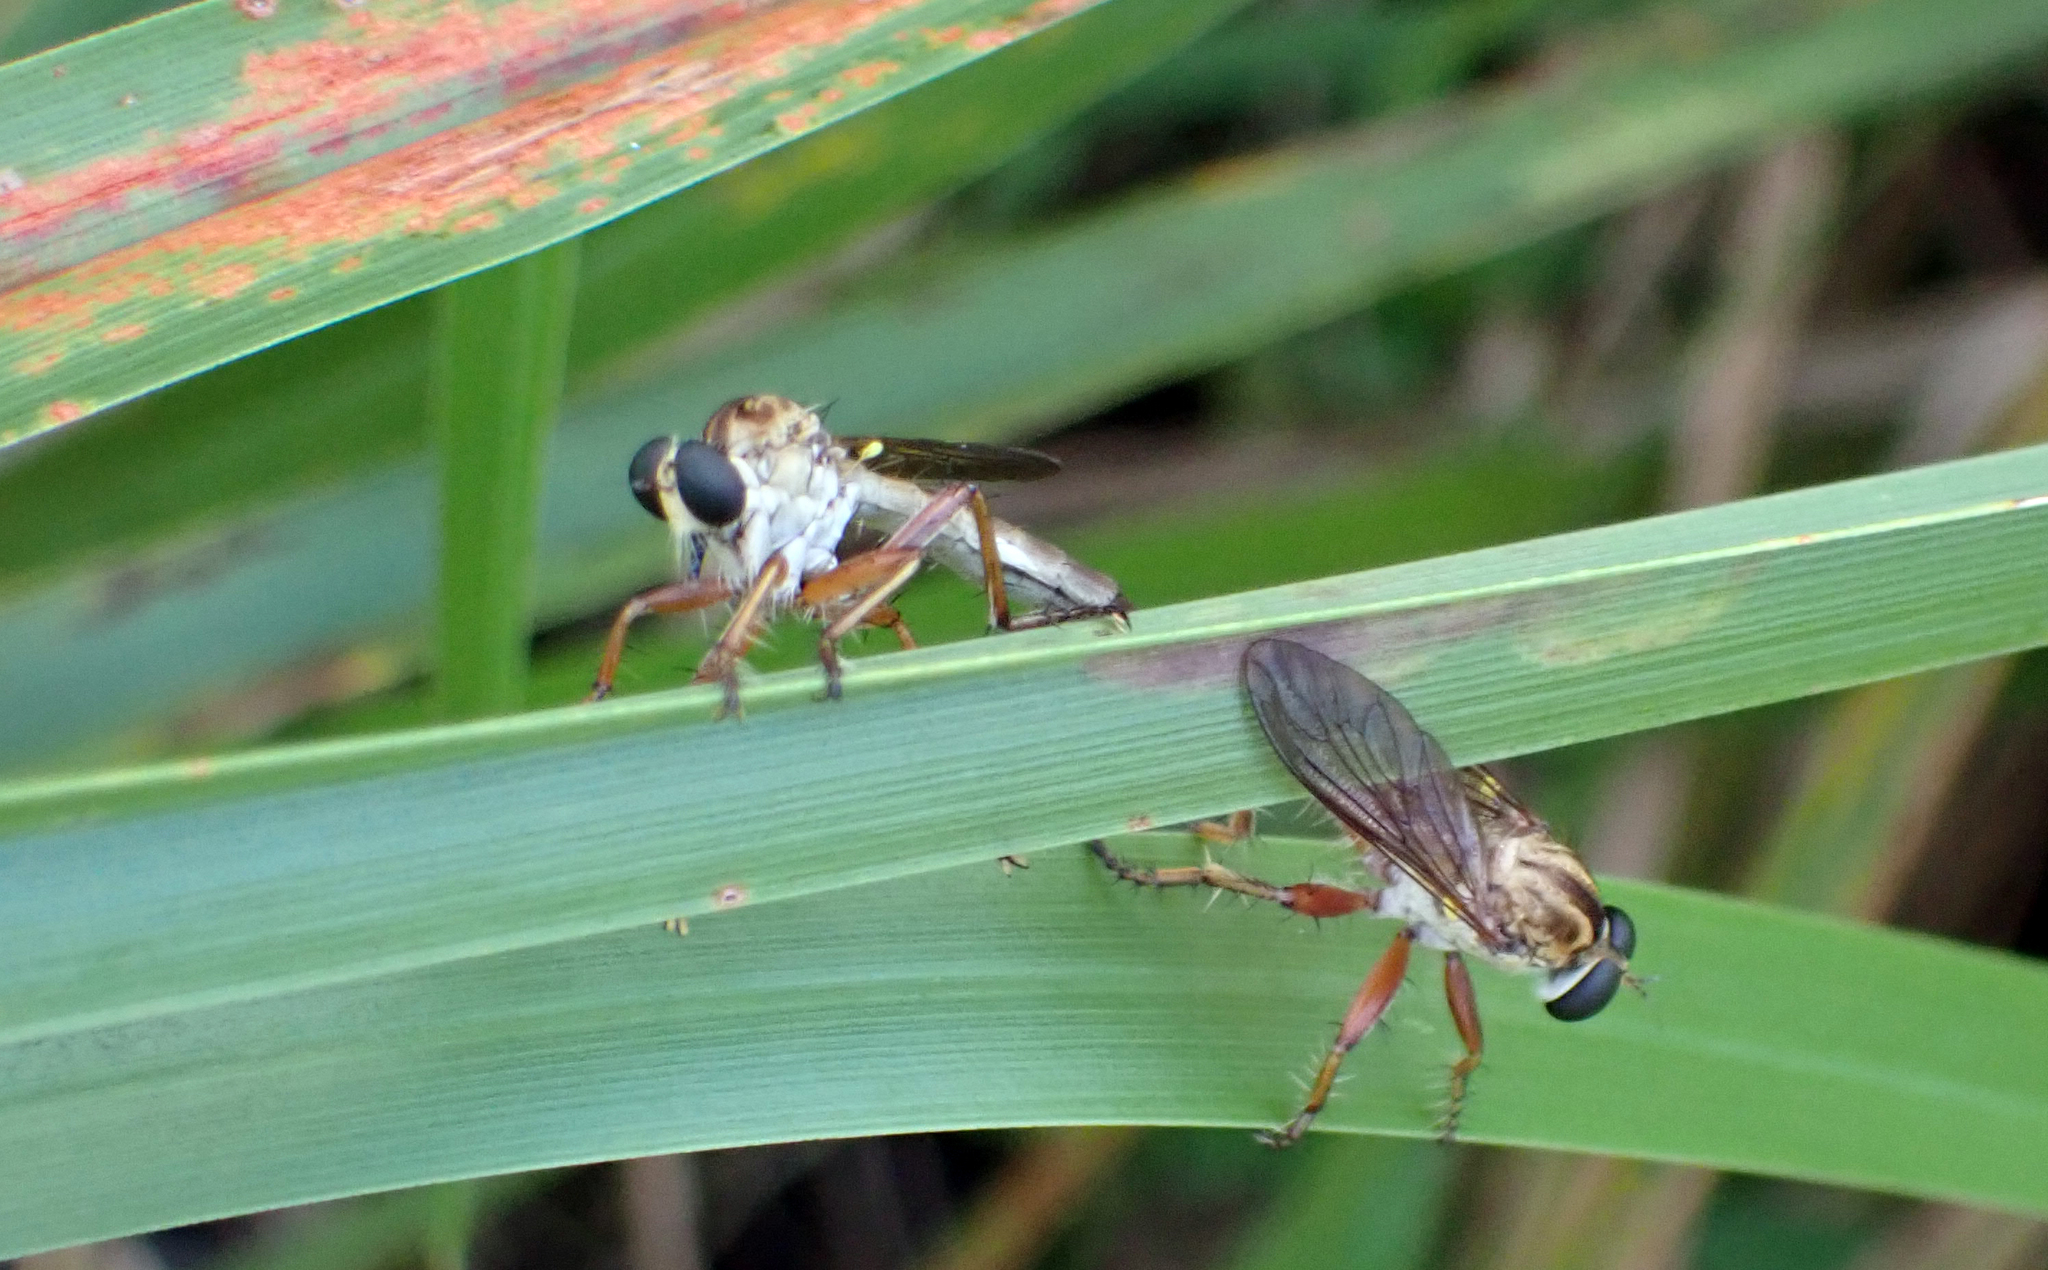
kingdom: Animalia
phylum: Arthropoda
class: Insecta
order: Diptera
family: Asilidae
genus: Polacantha
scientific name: Polacantha gracilis
